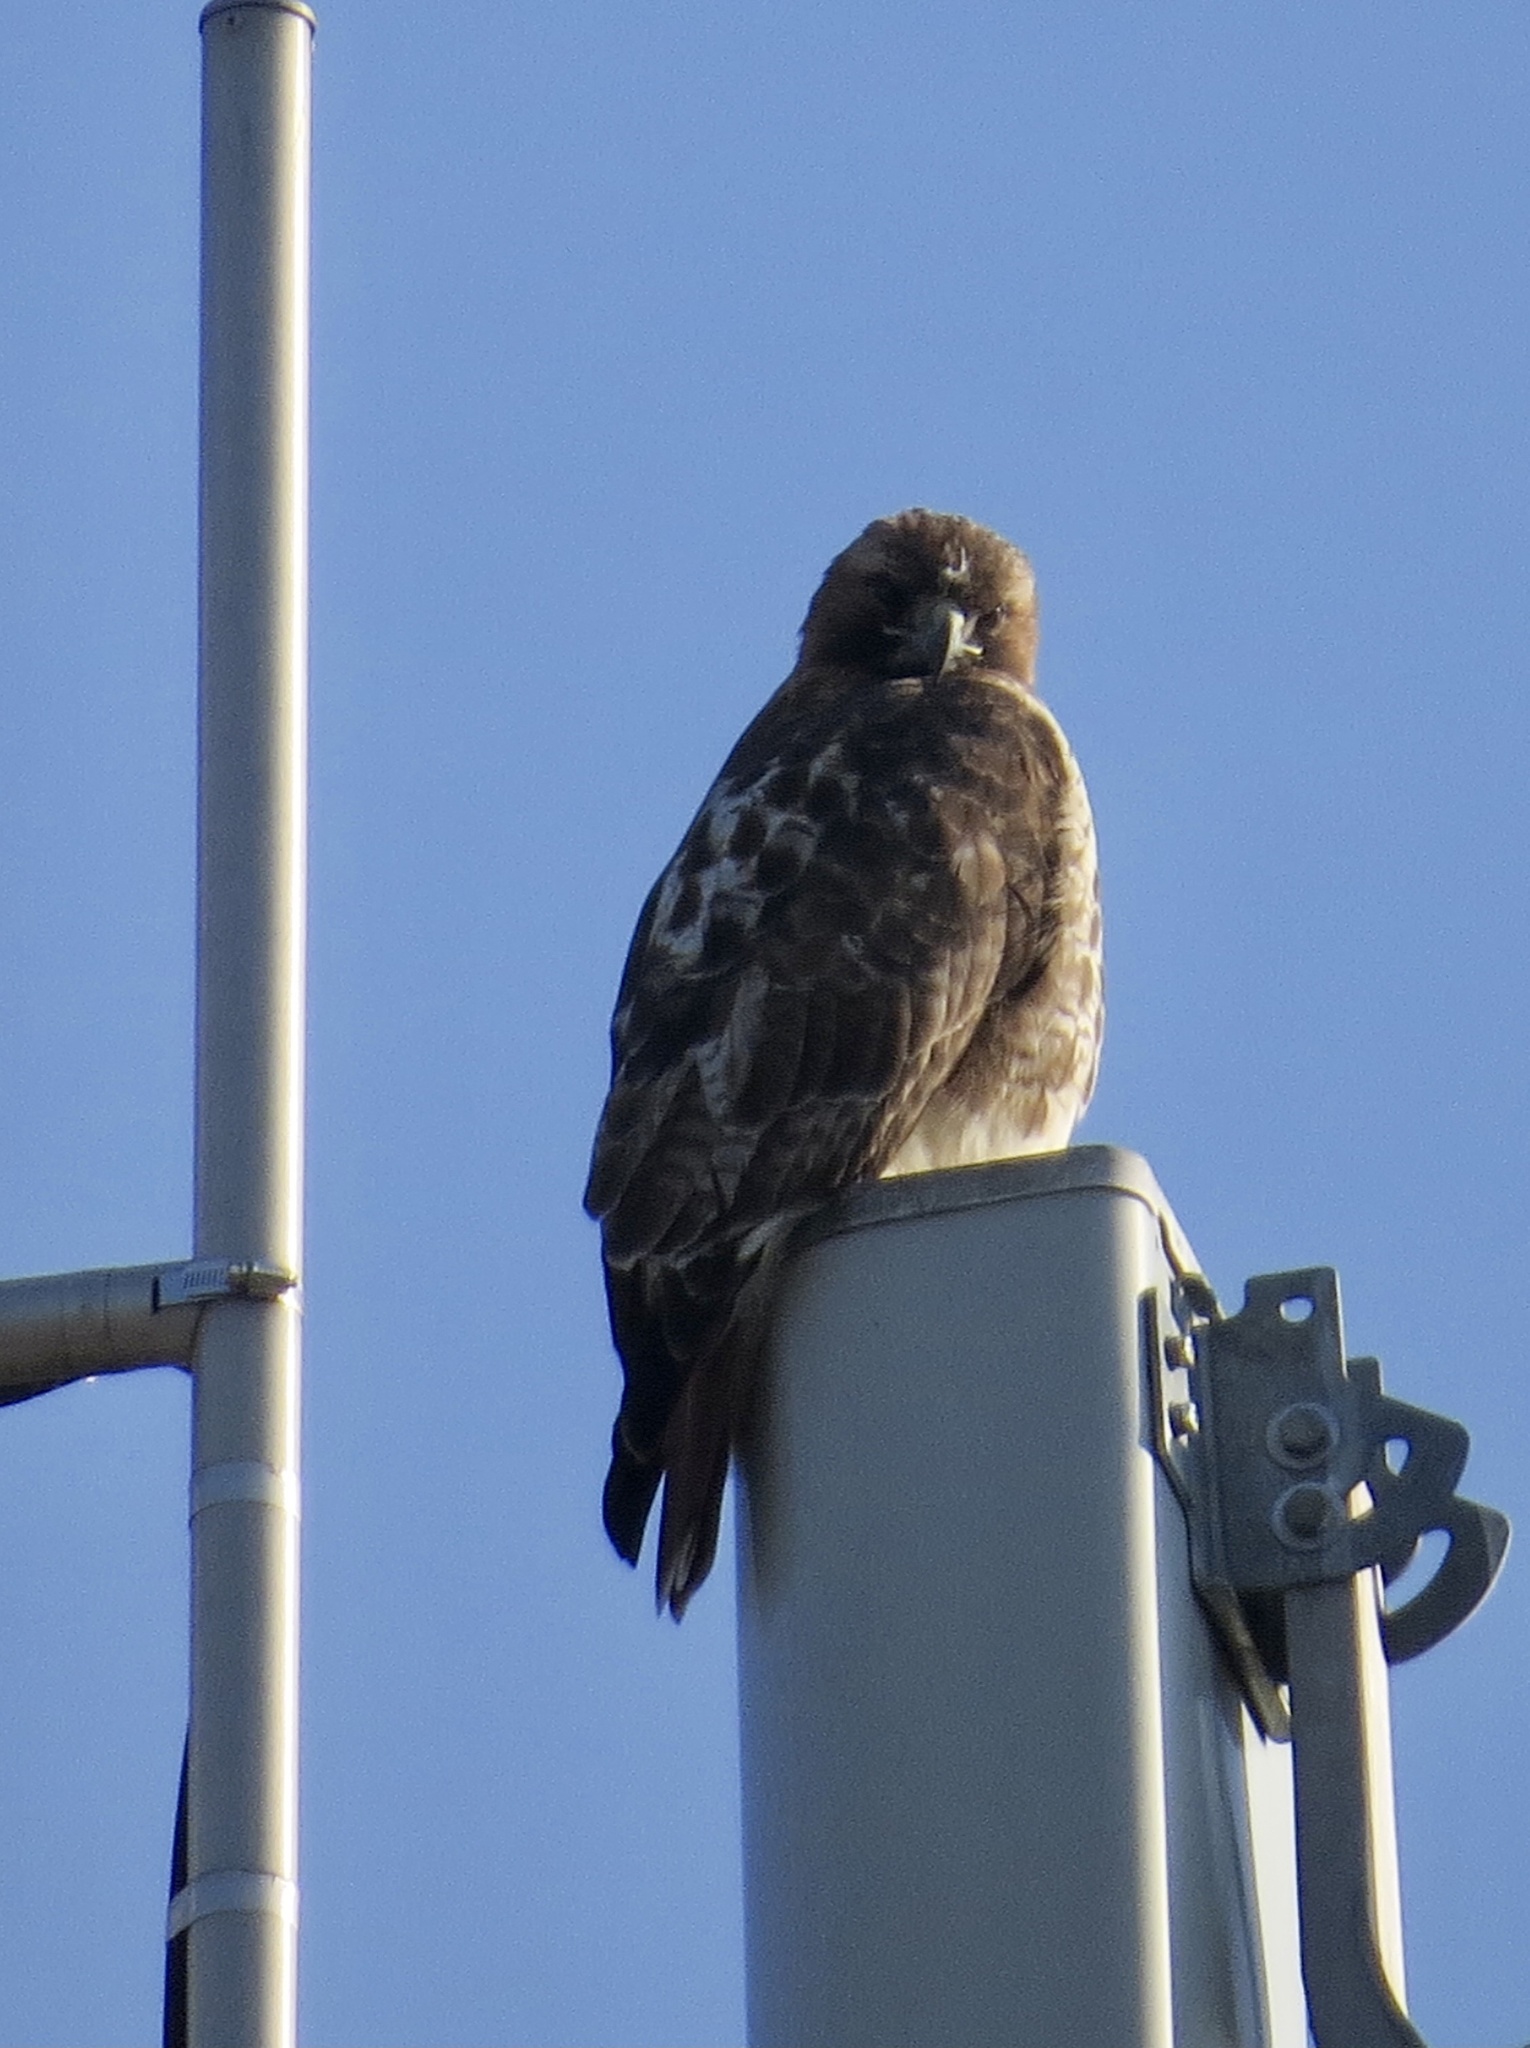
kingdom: Animalia
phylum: Chordata
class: Aves
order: Accipitriformes
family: Accipitridae
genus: Buteo
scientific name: Buteo jamaicensis
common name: Red-tailed hawk
